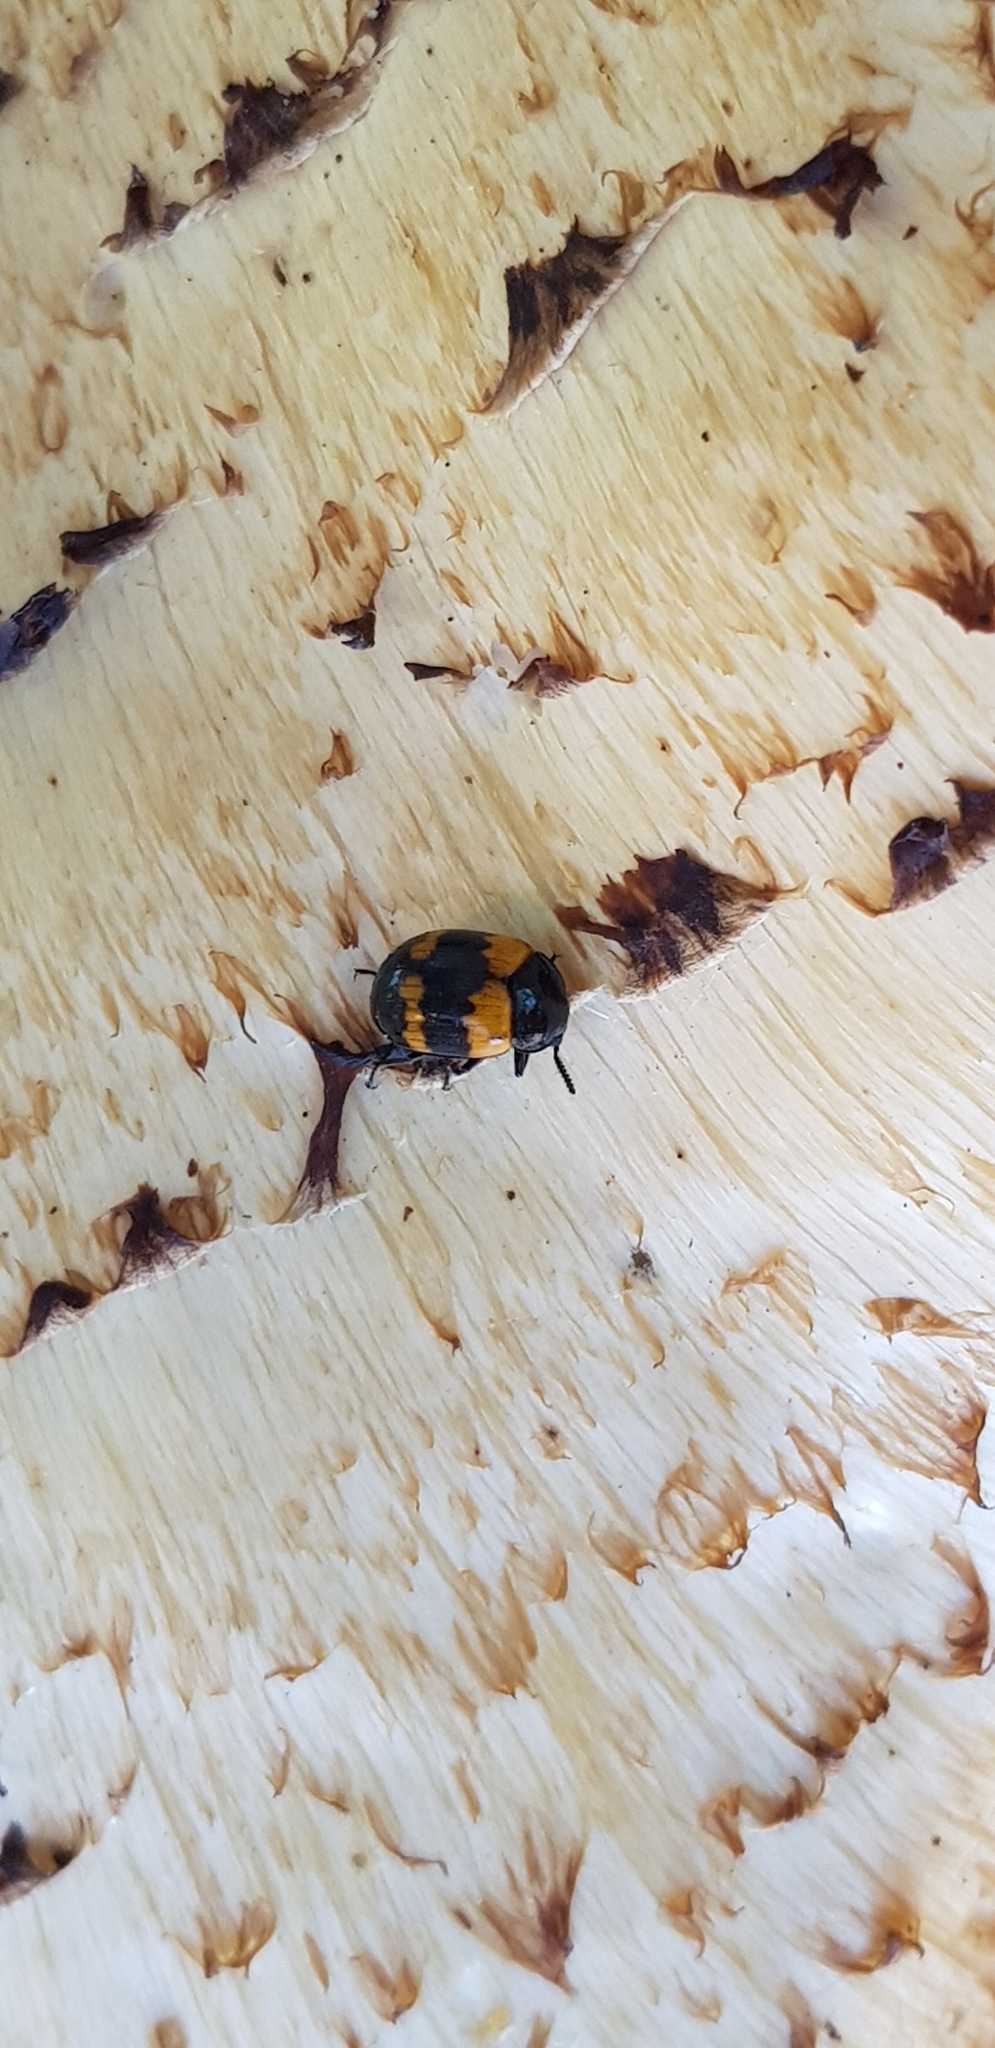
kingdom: Animalia
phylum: Arthropoda
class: Insecta
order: Coleoptera
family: Tenebrionidae
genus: Diaperis
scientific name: Diaperis boleti
